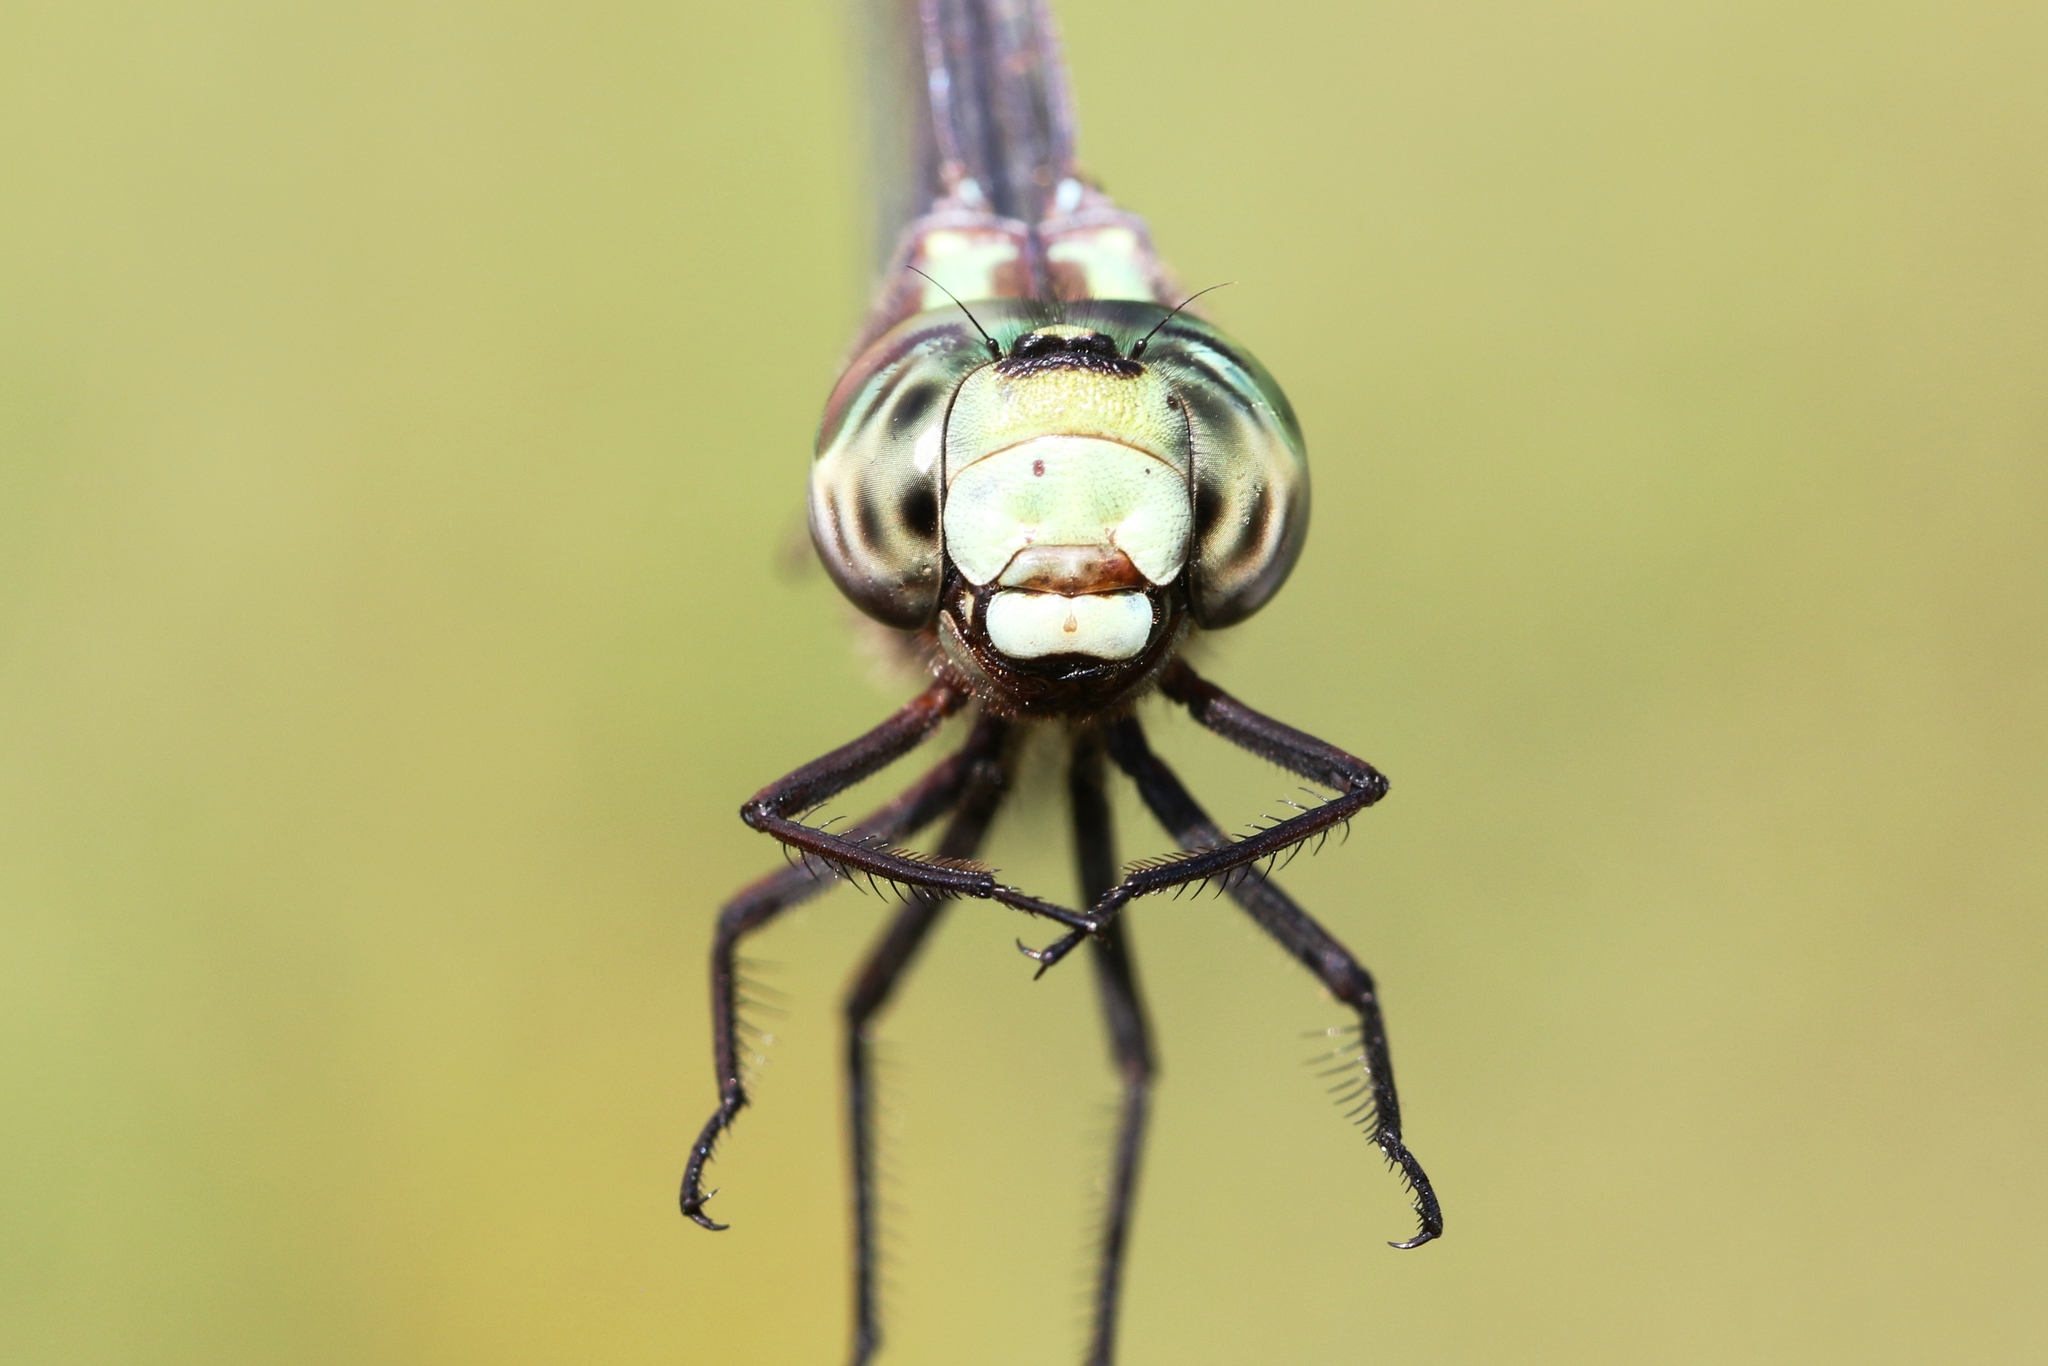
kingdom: Animalia
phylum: Arthropoda
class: Insecta
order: Odonata
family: Aeshnidae
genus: Aeshna
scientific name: Aeshna verticalis
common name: Green-striped darner
